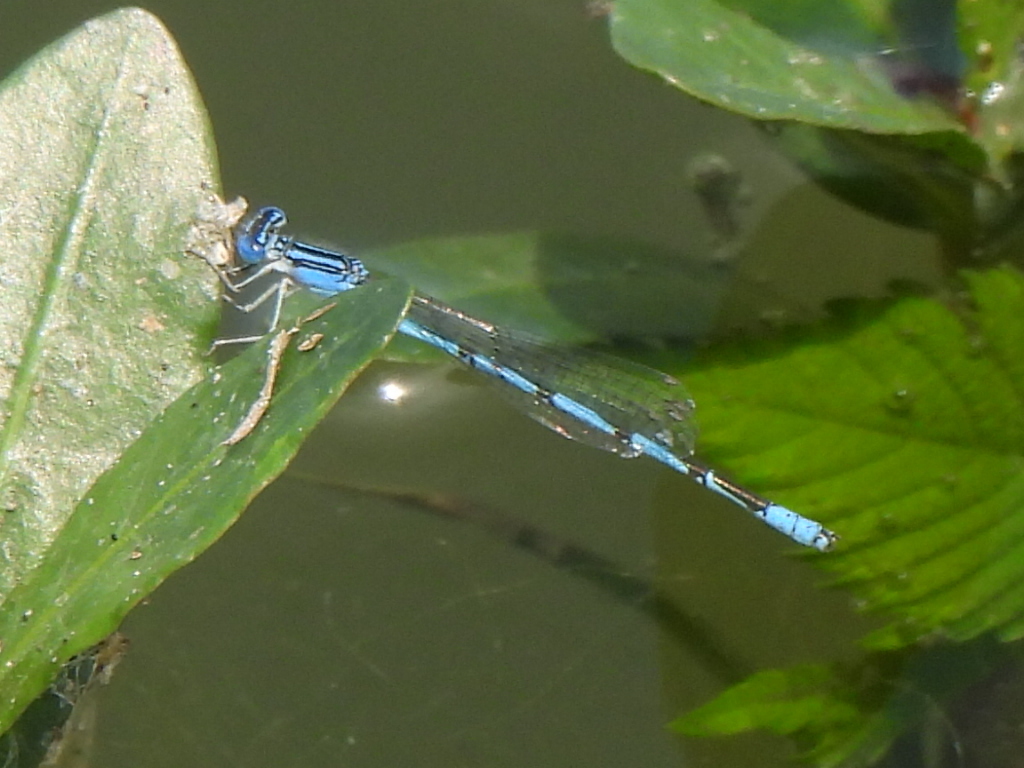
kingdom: Animalia
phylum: Arthropoda
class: Insecta
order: Odonata
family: Coenagrionidae
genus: Enallagma
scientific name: Enallagma basidens
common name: Double-striped bluet
